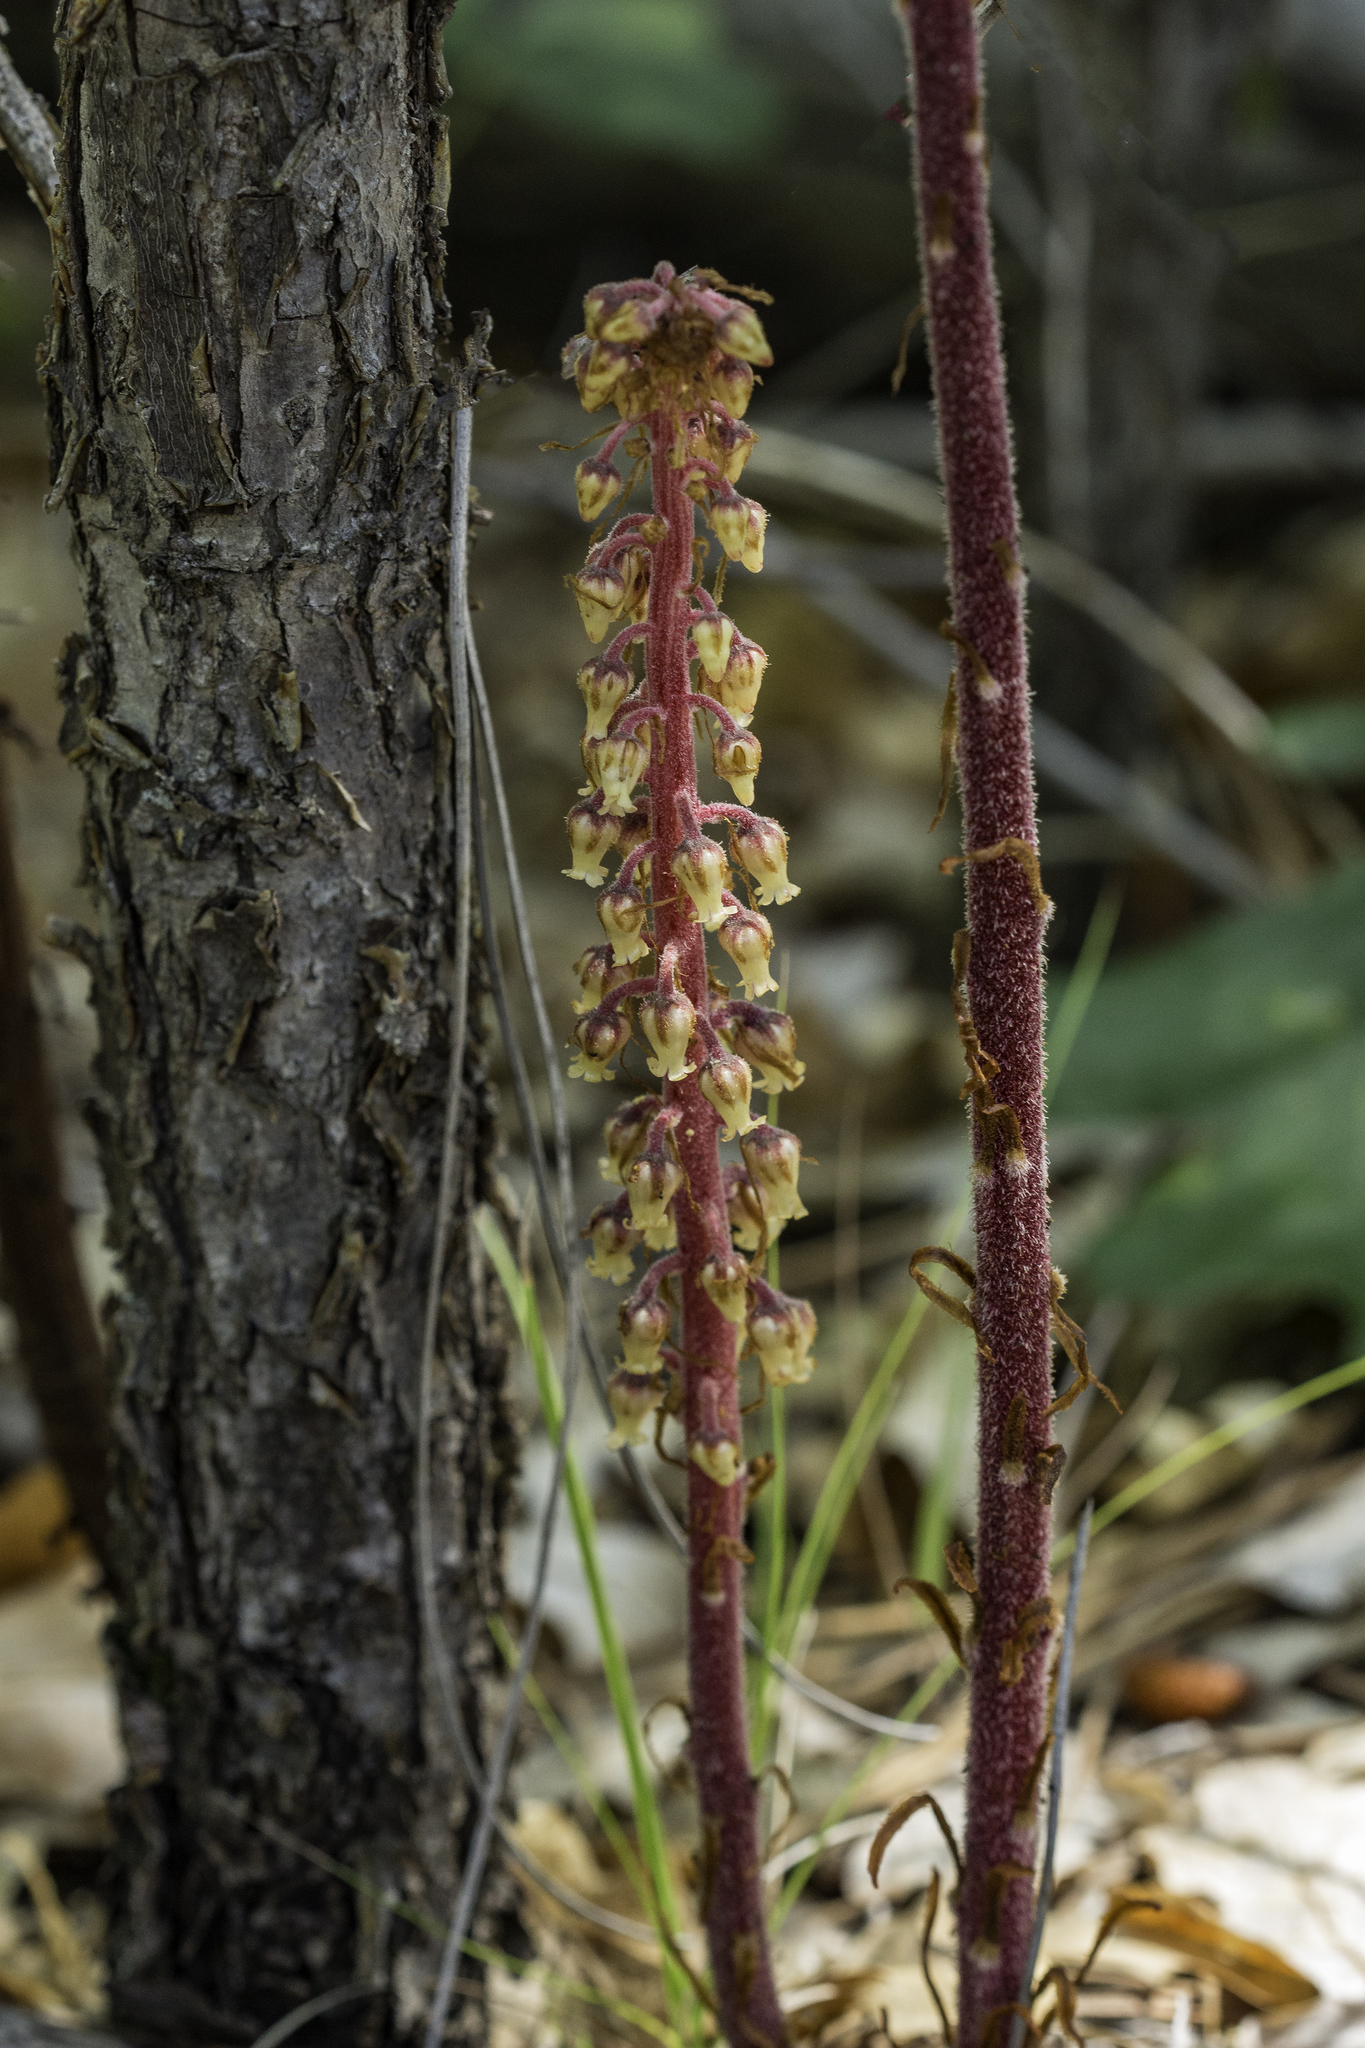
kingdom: Plantae
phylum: Tracheophyta
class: Magnoliopsida
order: Ericales
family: Ericaceae
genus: Pterospora
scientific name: Pterospora andromedea
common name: Giant bird's-nest
